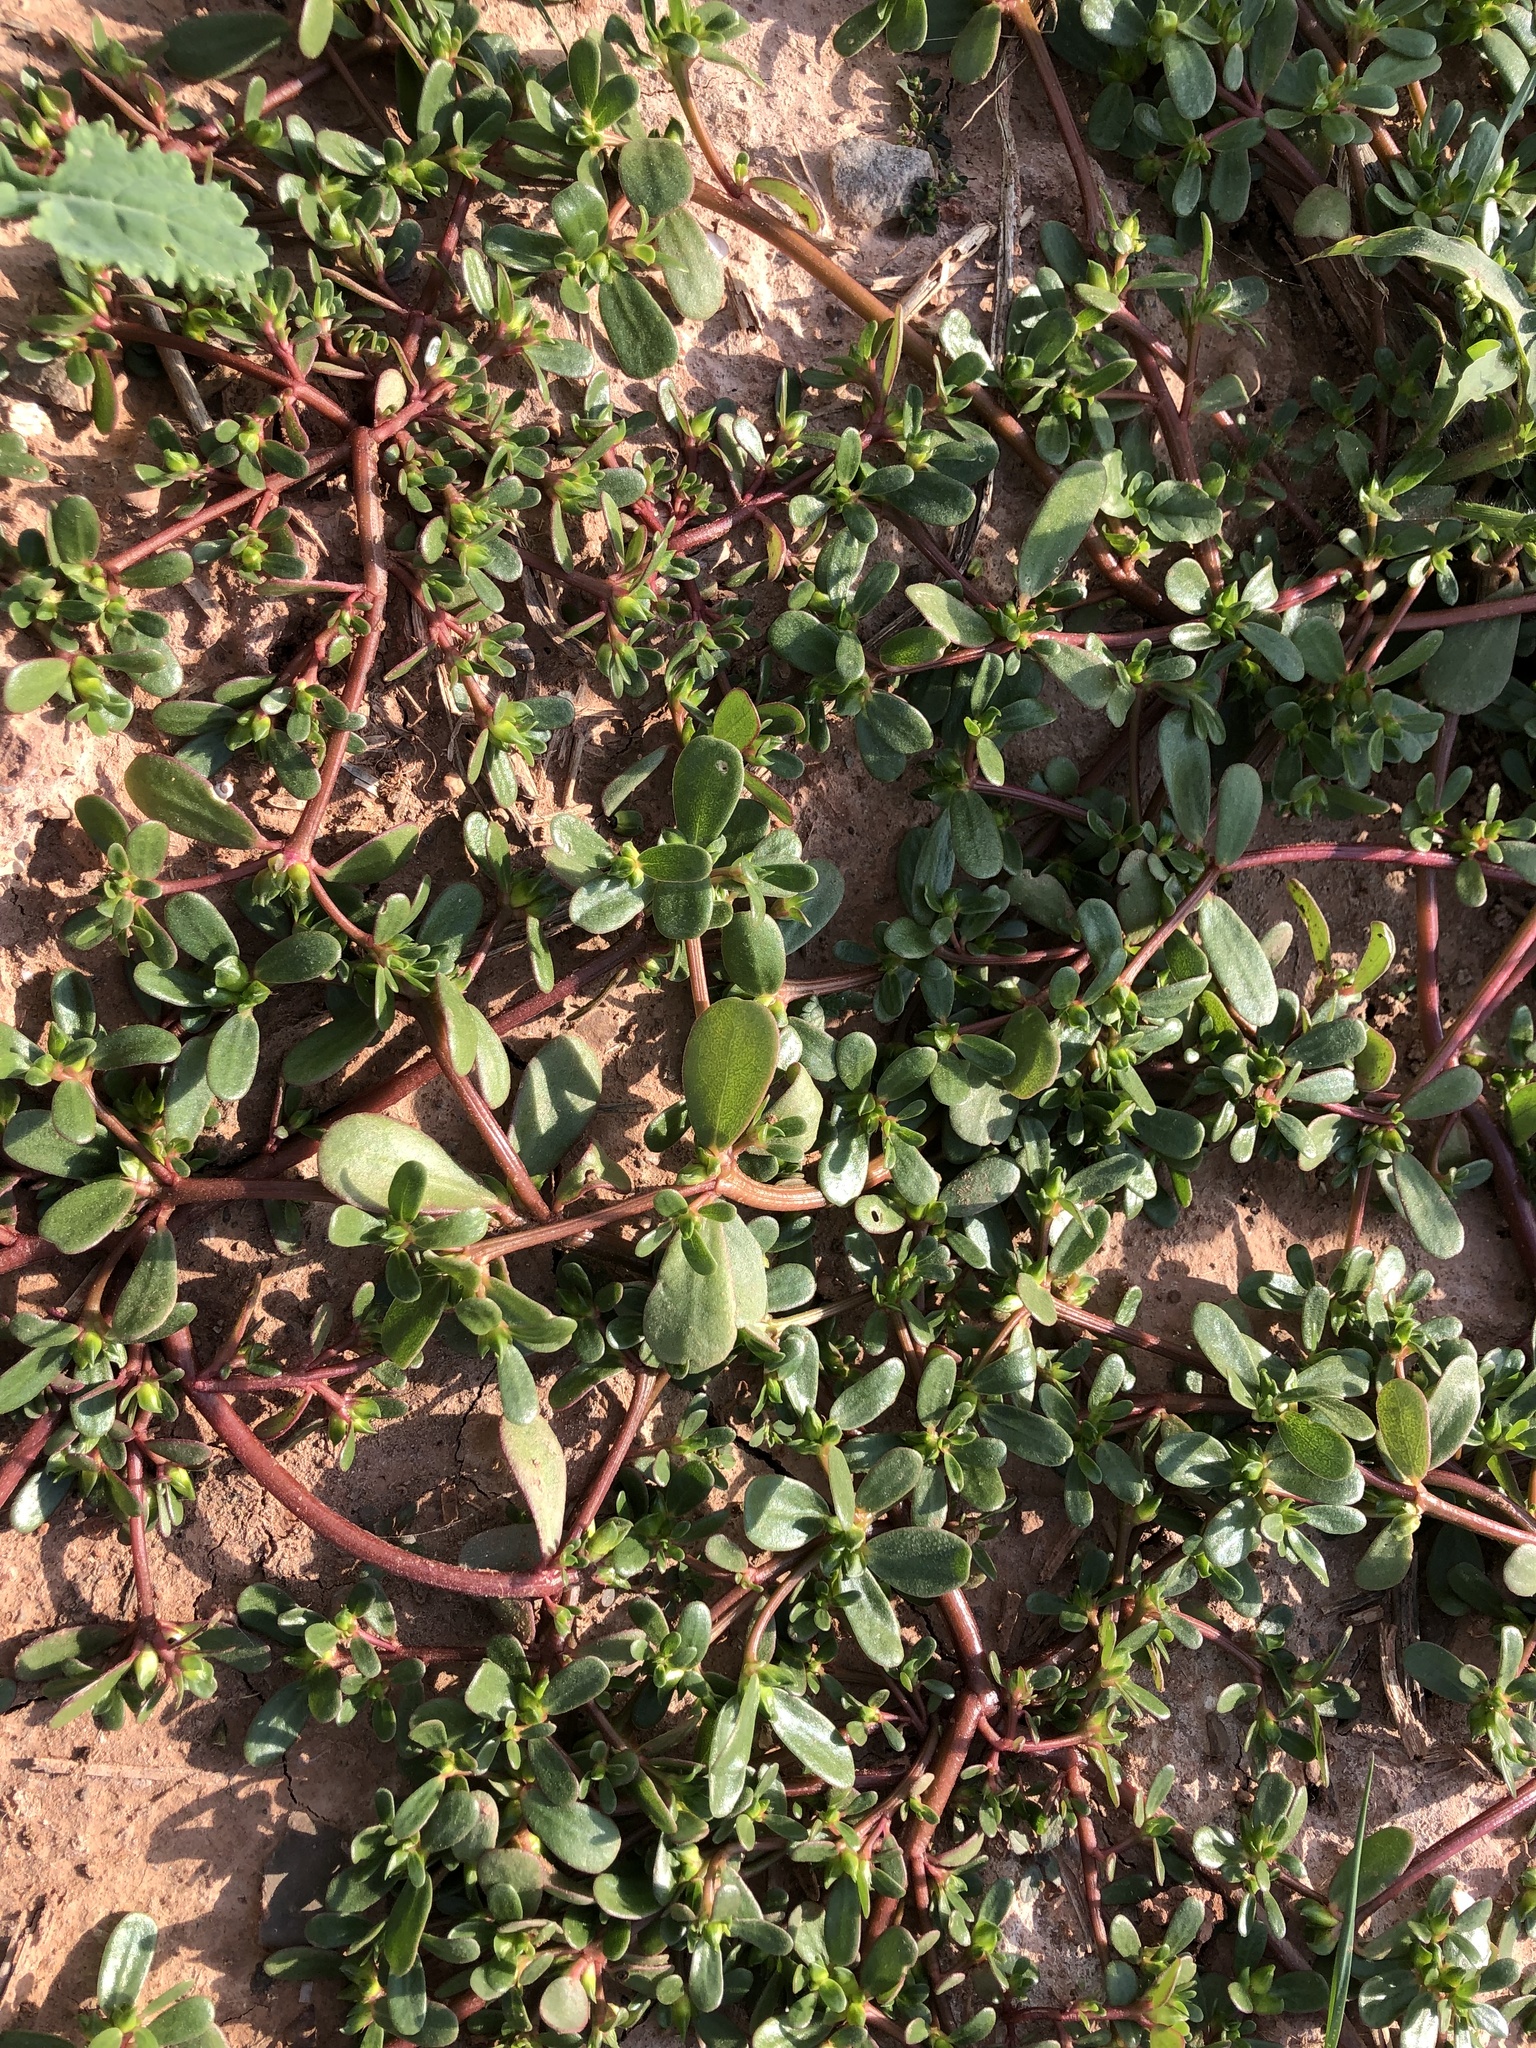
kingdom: Plantae
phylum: Tracheophyta
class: Magnoliopsida
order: Caryophyllales
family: Portulacaceae
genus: Portulaca
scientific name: Portulaca oleracea
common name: Common purslane
